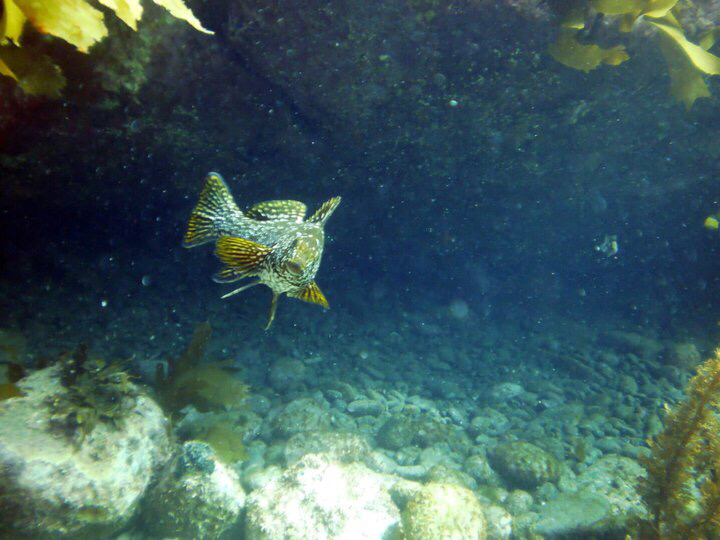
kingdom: Animalia
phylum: Chordata
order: Perciformes
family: Aplodactylidae
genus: Aplodactylus
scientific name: Aplodactylus arctidens
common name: Marblefish
